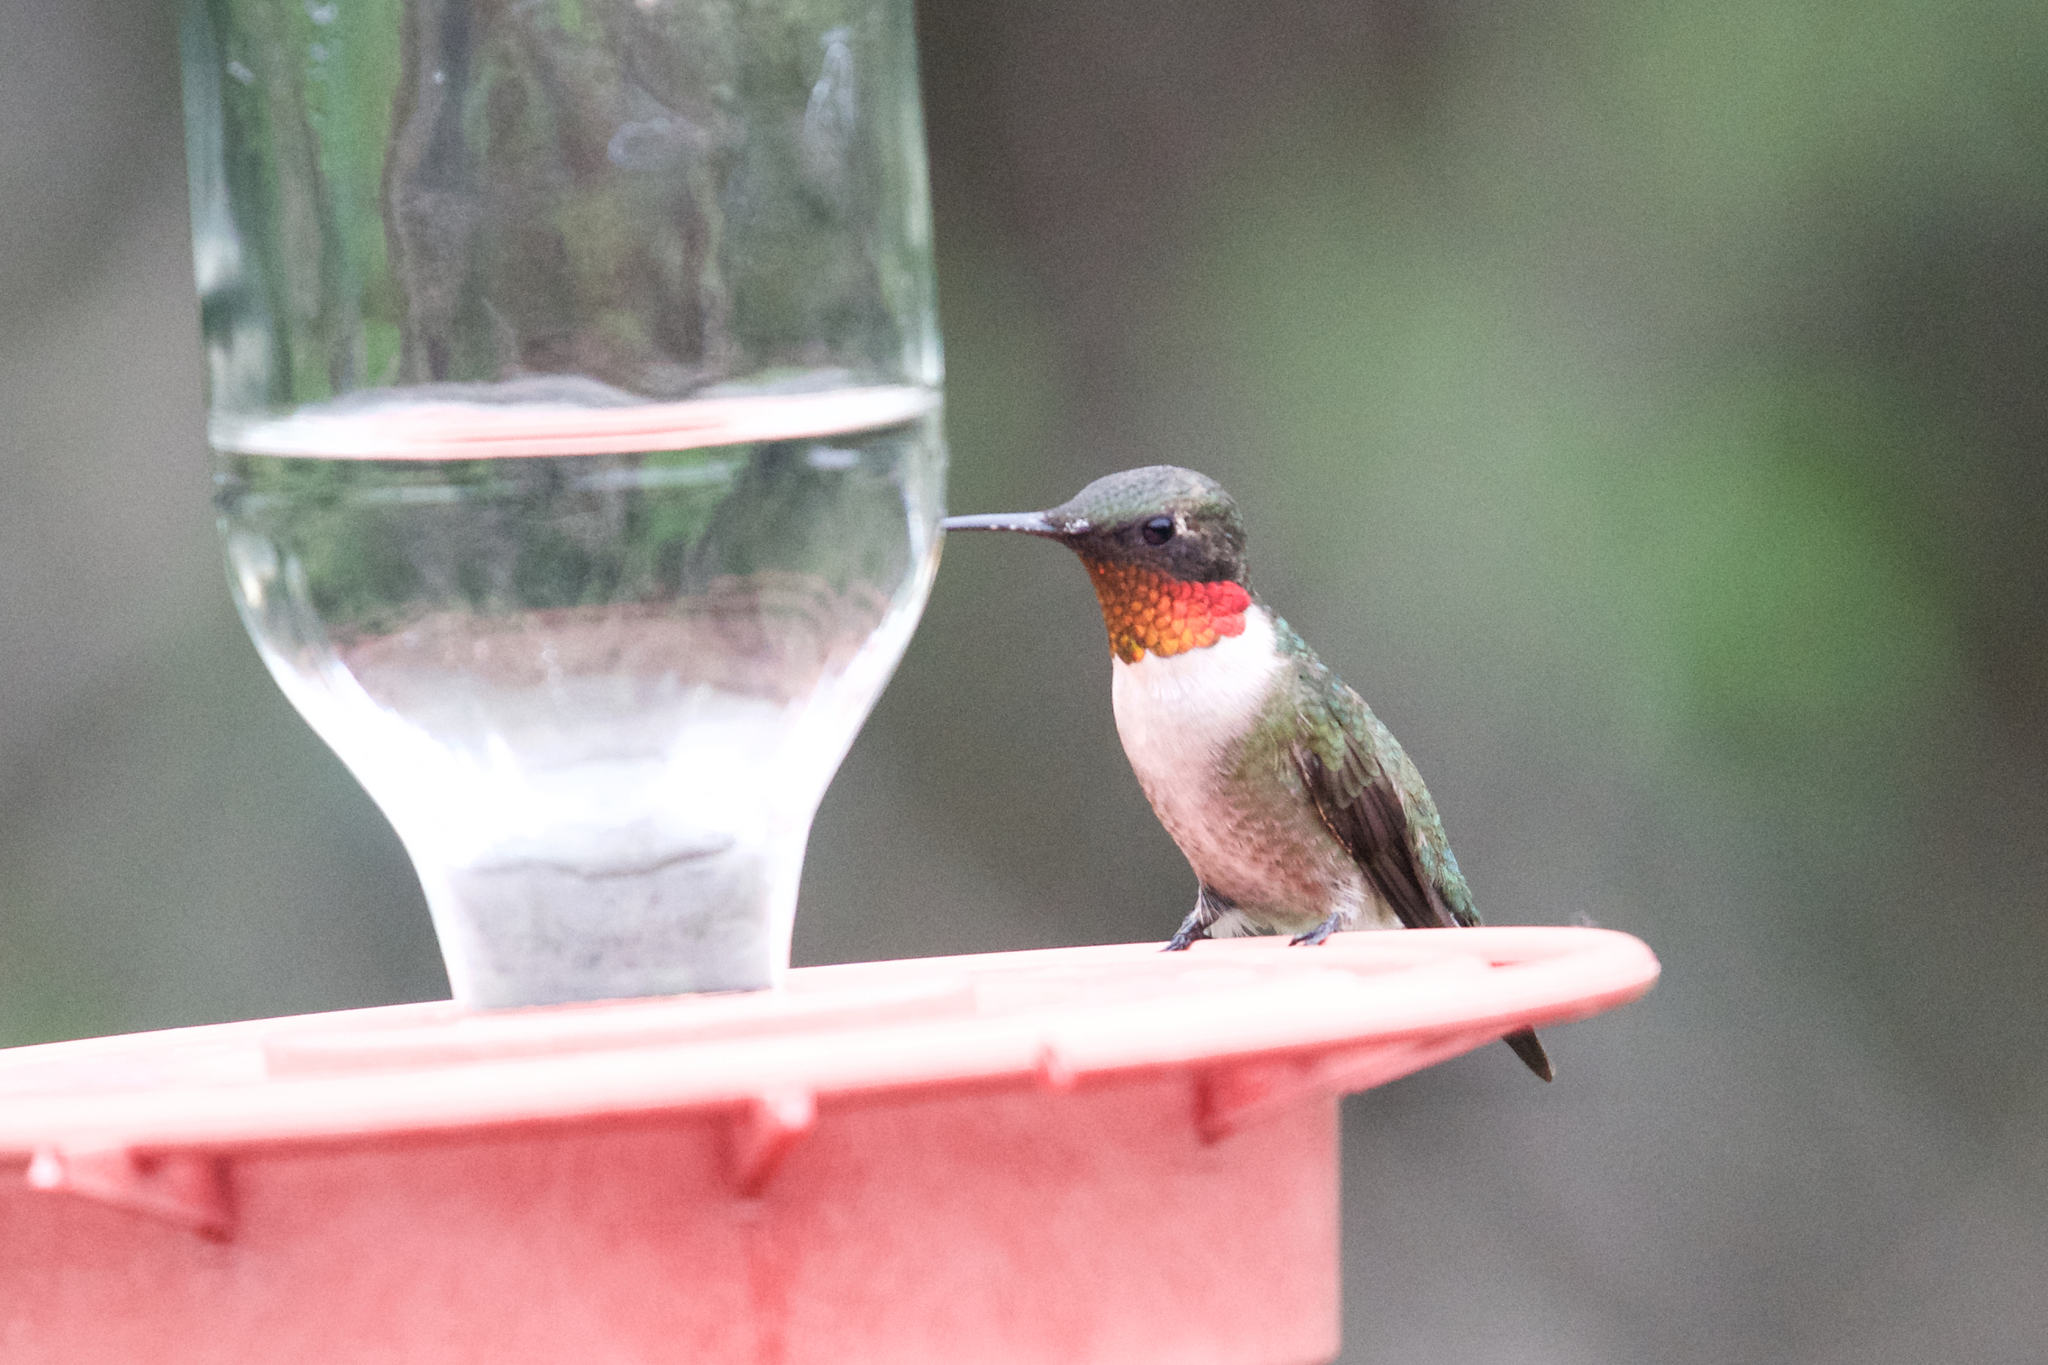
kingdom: Animalia
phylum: Chordata
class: Aves
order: Apodiformes
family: Trochilidae
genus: Archilochus
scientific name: Archilochus colubris
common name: Ruby-throated hummingbird
